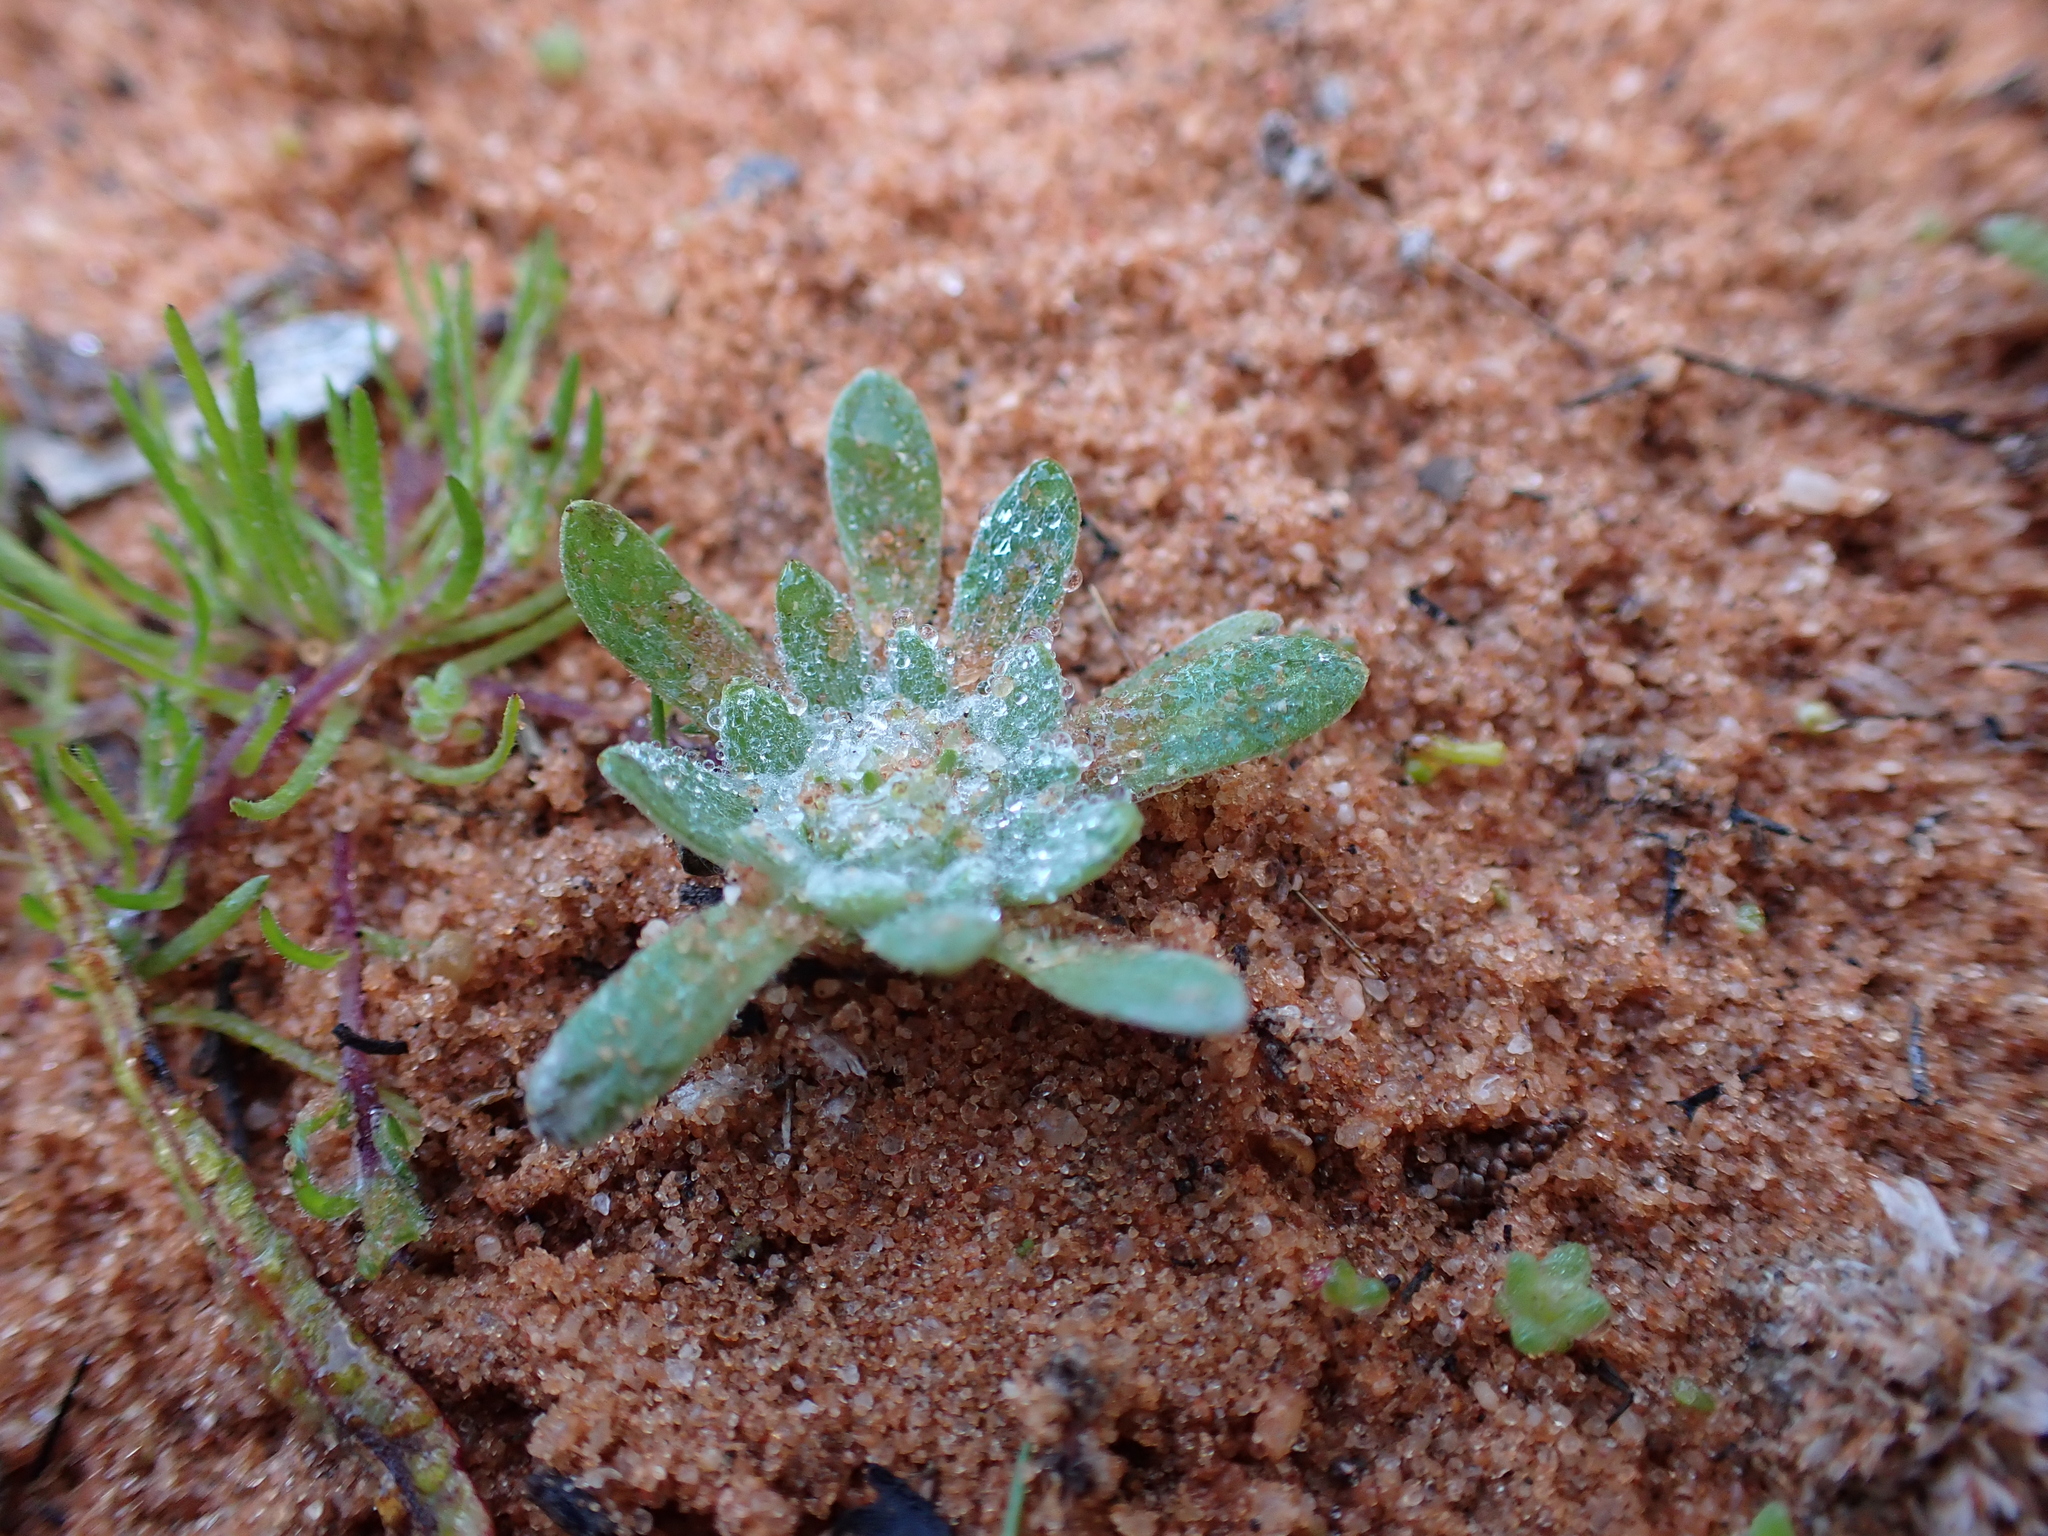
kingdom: Plantae
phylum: Tracheophyta
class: Magnoliopsida
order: Asterales
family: Asteraceae
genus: Chthonocephalus
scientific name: Chthonocephalus pseudevax
